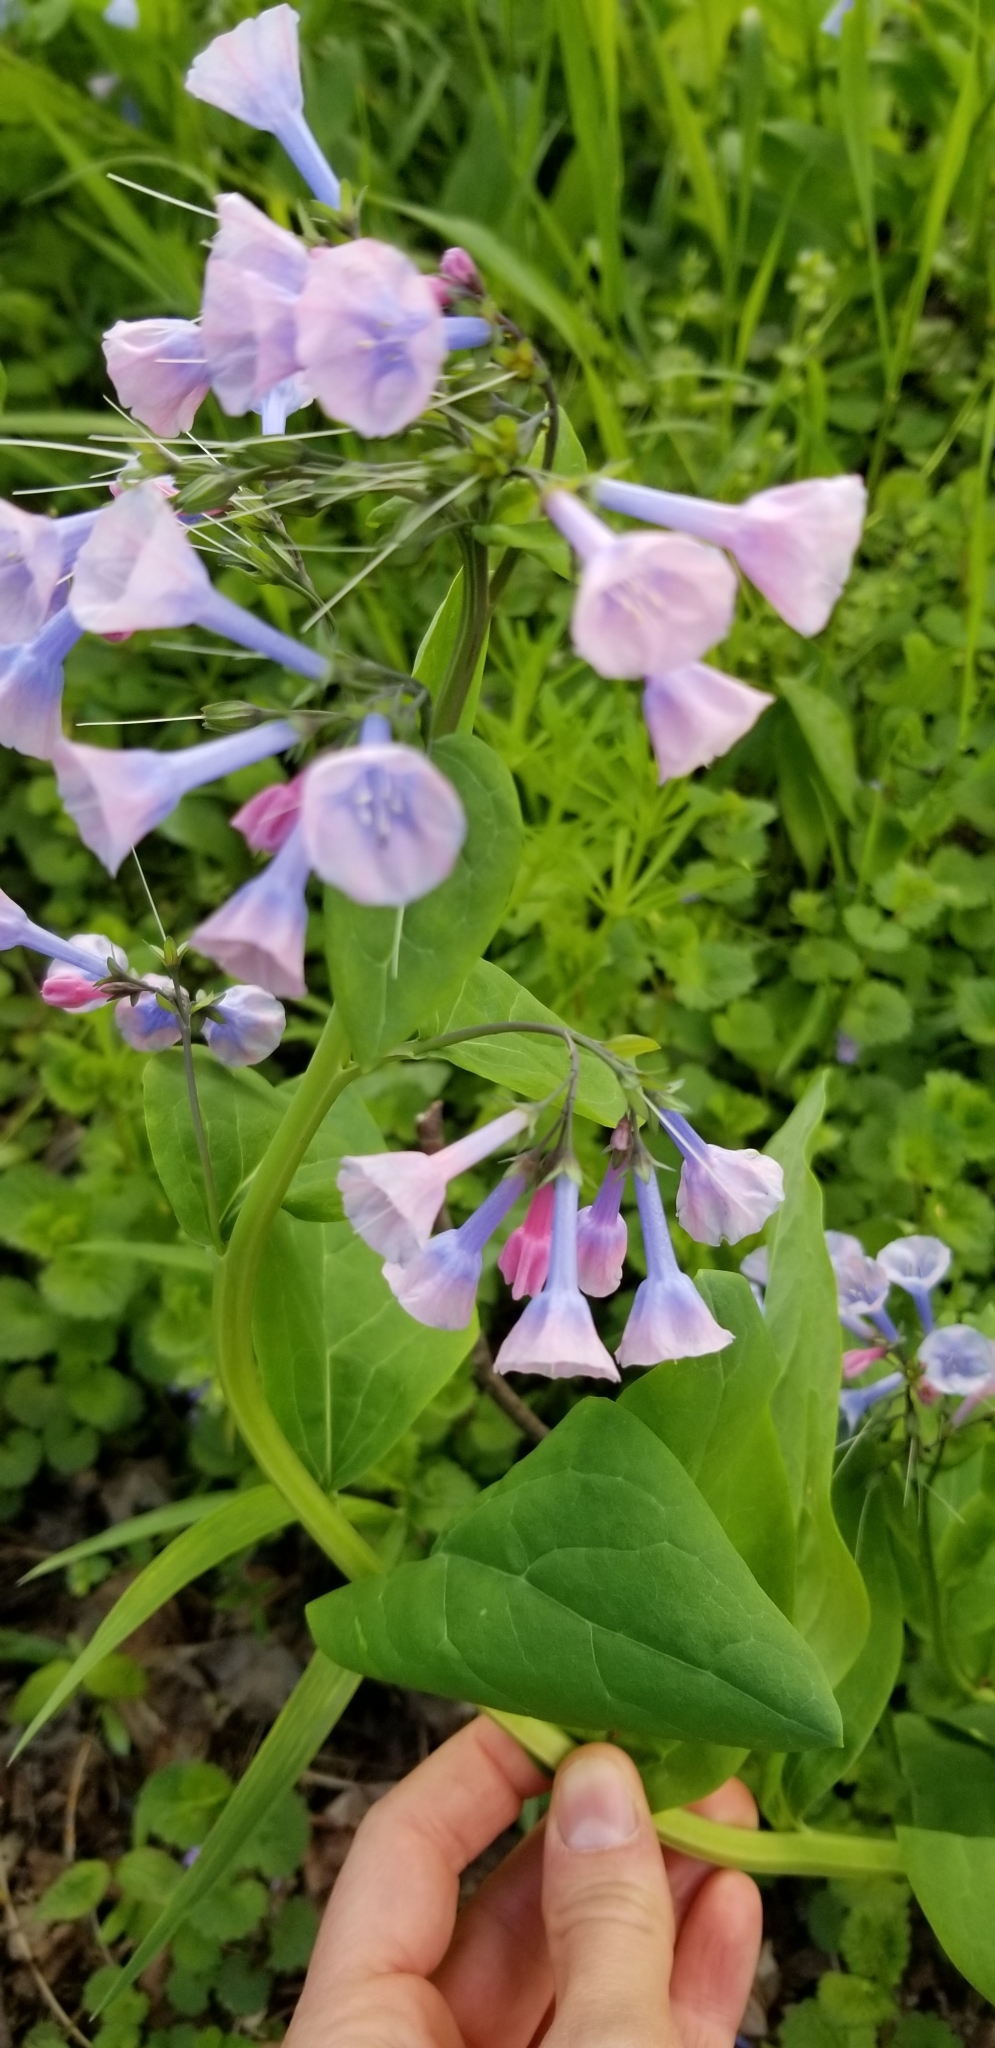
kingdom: Plantae
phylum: Tracheophyta
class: Magnoliopsida
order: Boraginales
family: Boraginaceae
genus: Mertensia
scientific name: Mertensia virginica
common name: Virginia bluebells
